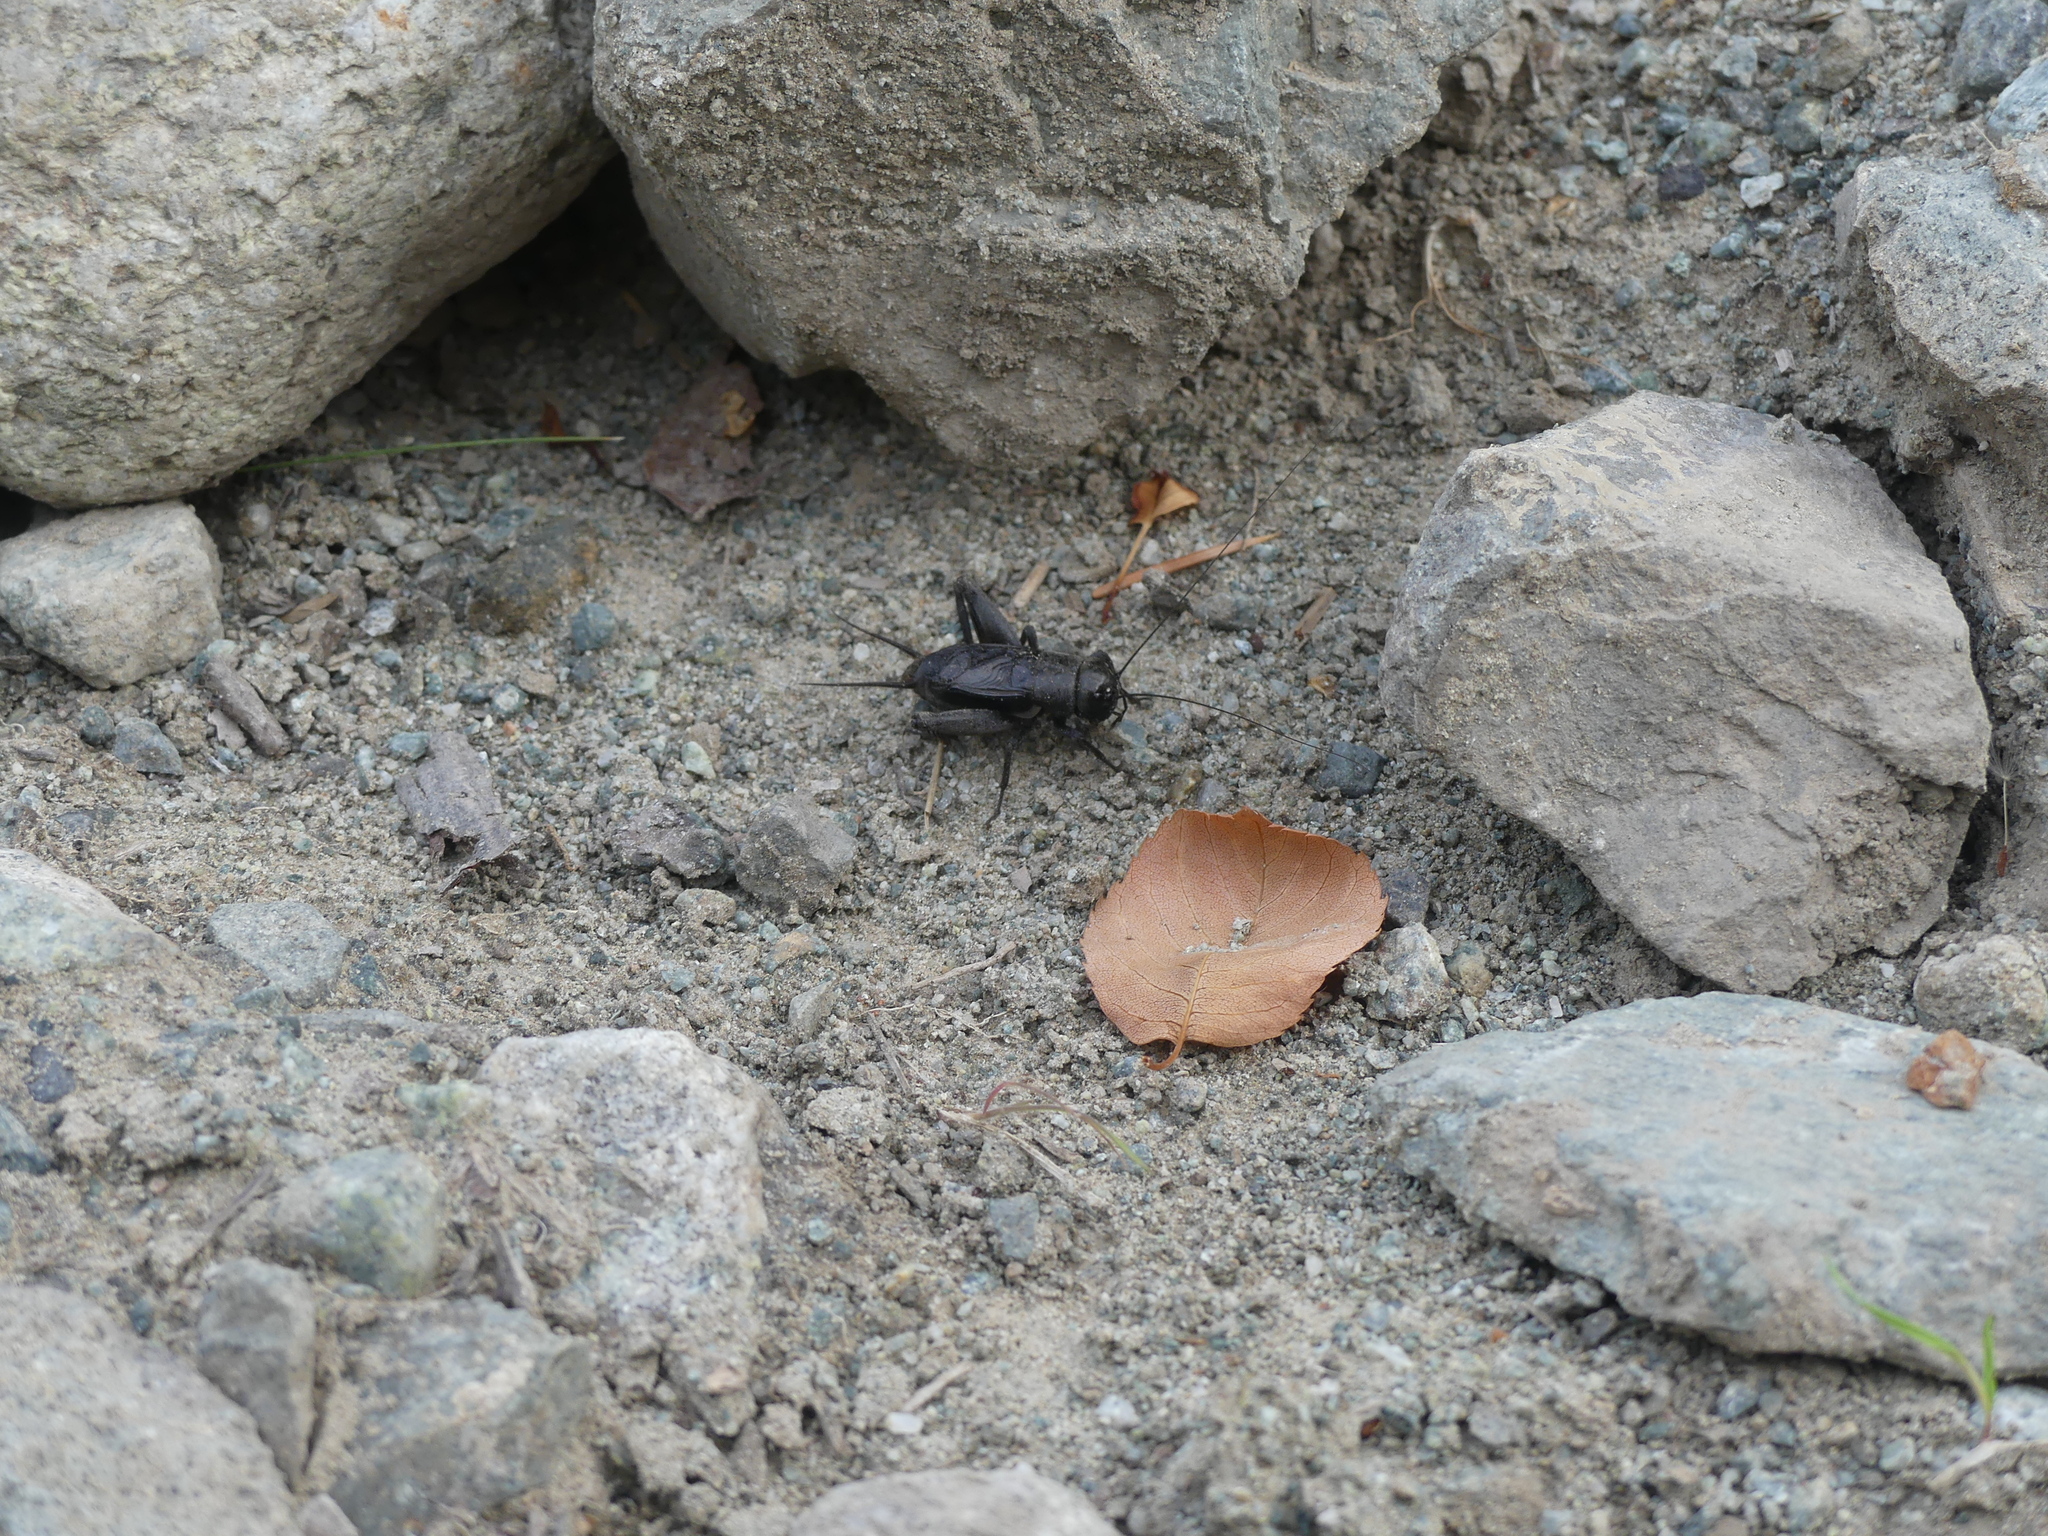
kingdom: Animalia
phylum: Arthropoda
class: Insecta
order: Orthoptera
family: Gryllidae
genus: Gryllus
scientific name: Gryllus saxatilis
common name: Western rock-loving field cricket
